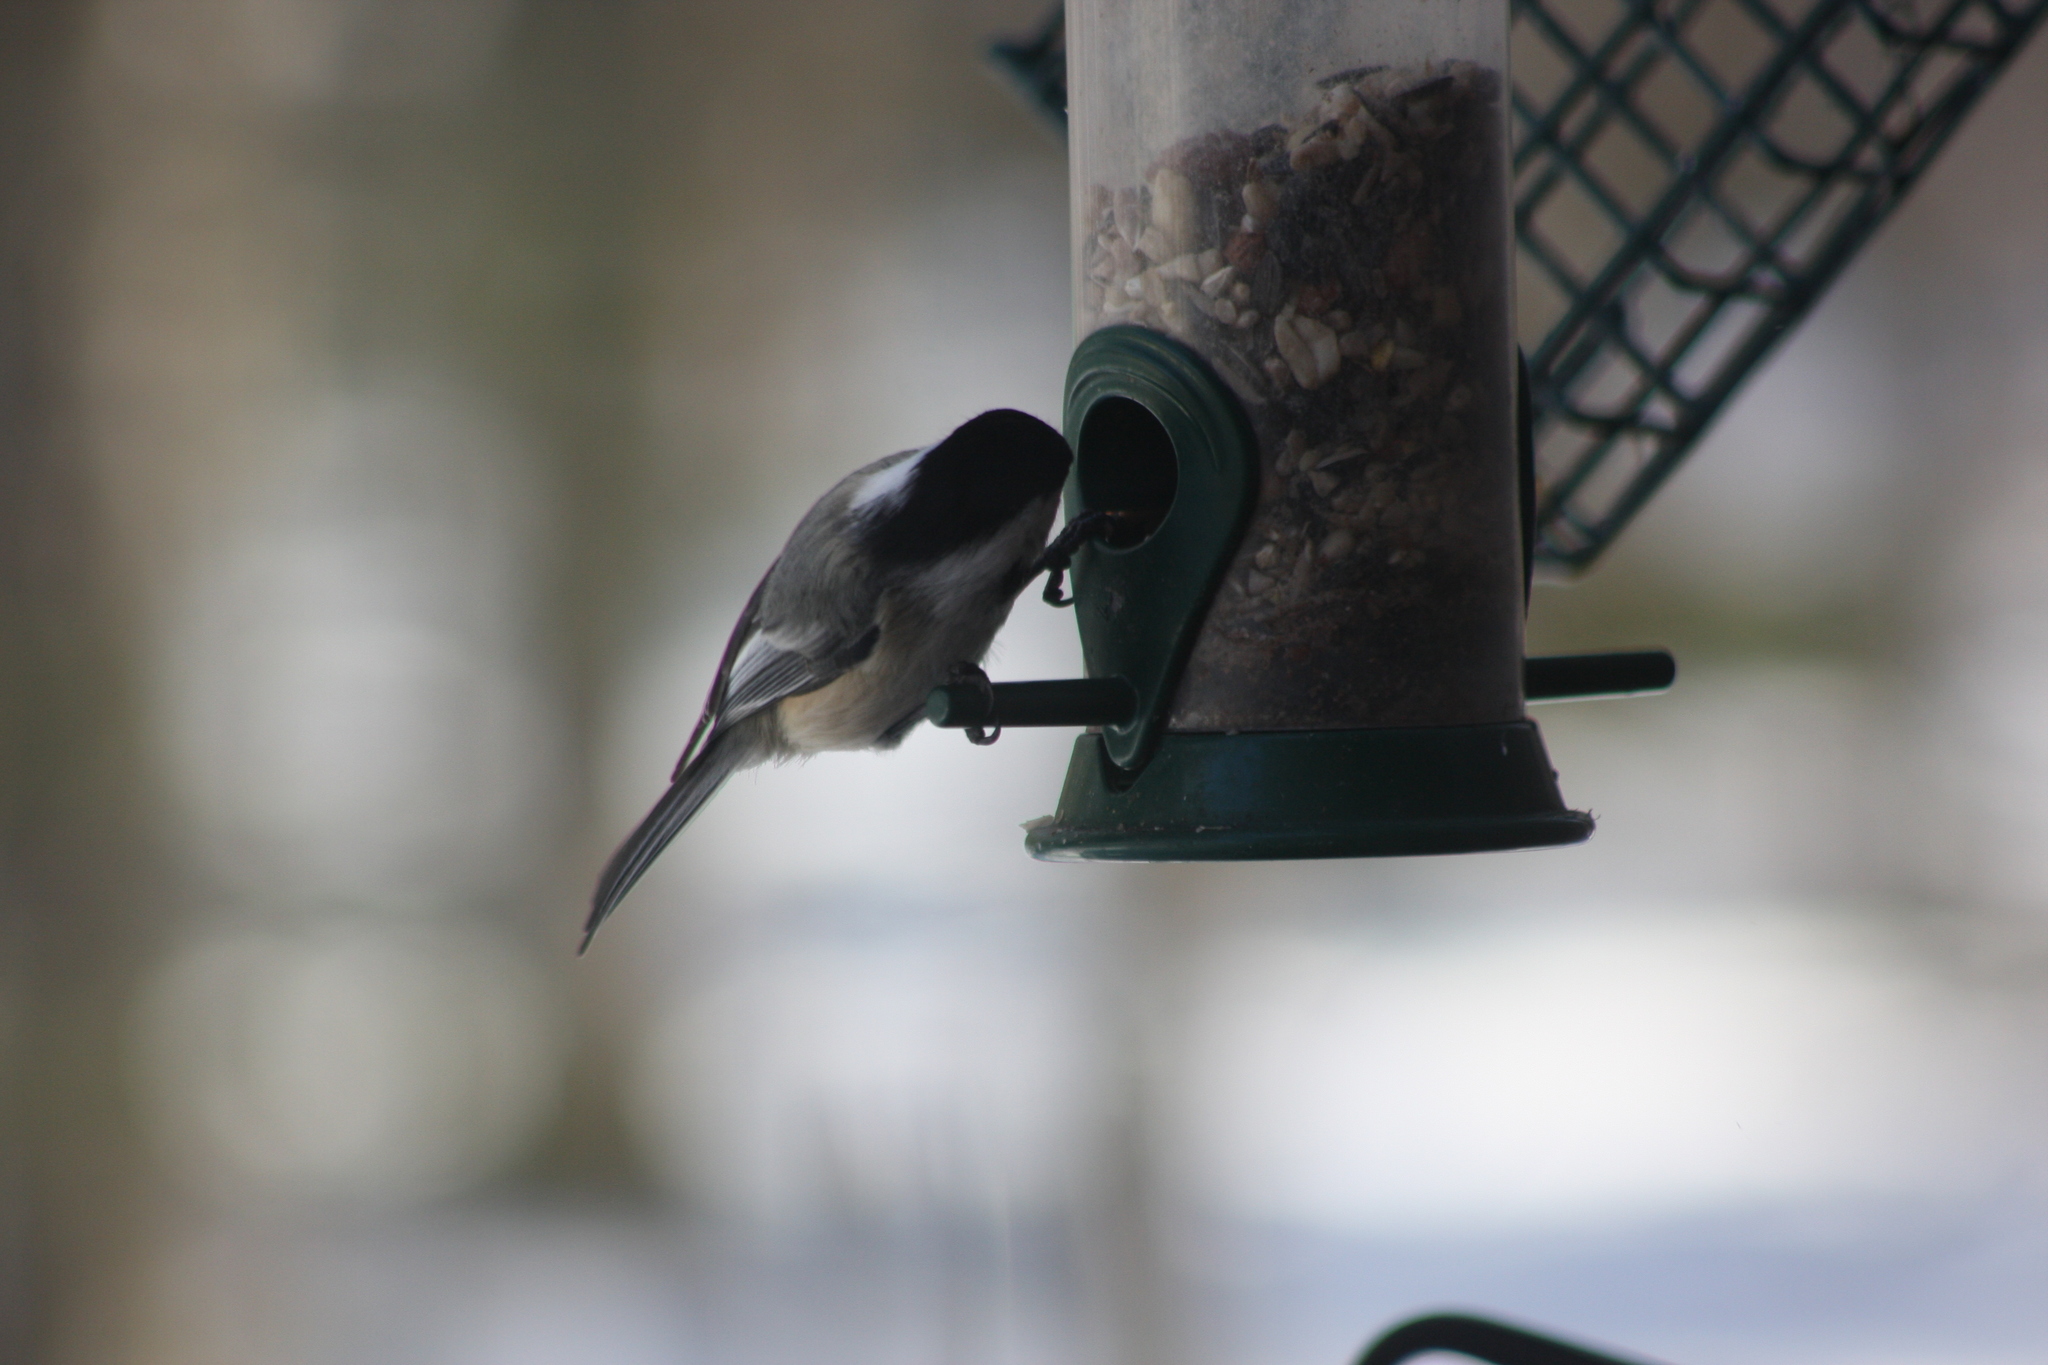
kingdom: Animalia
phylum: Chordata
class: Aves
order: Passeriformes
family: Paridae
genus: Poecile
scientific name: Poecile atricapillus
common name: Black-capped chickadee
